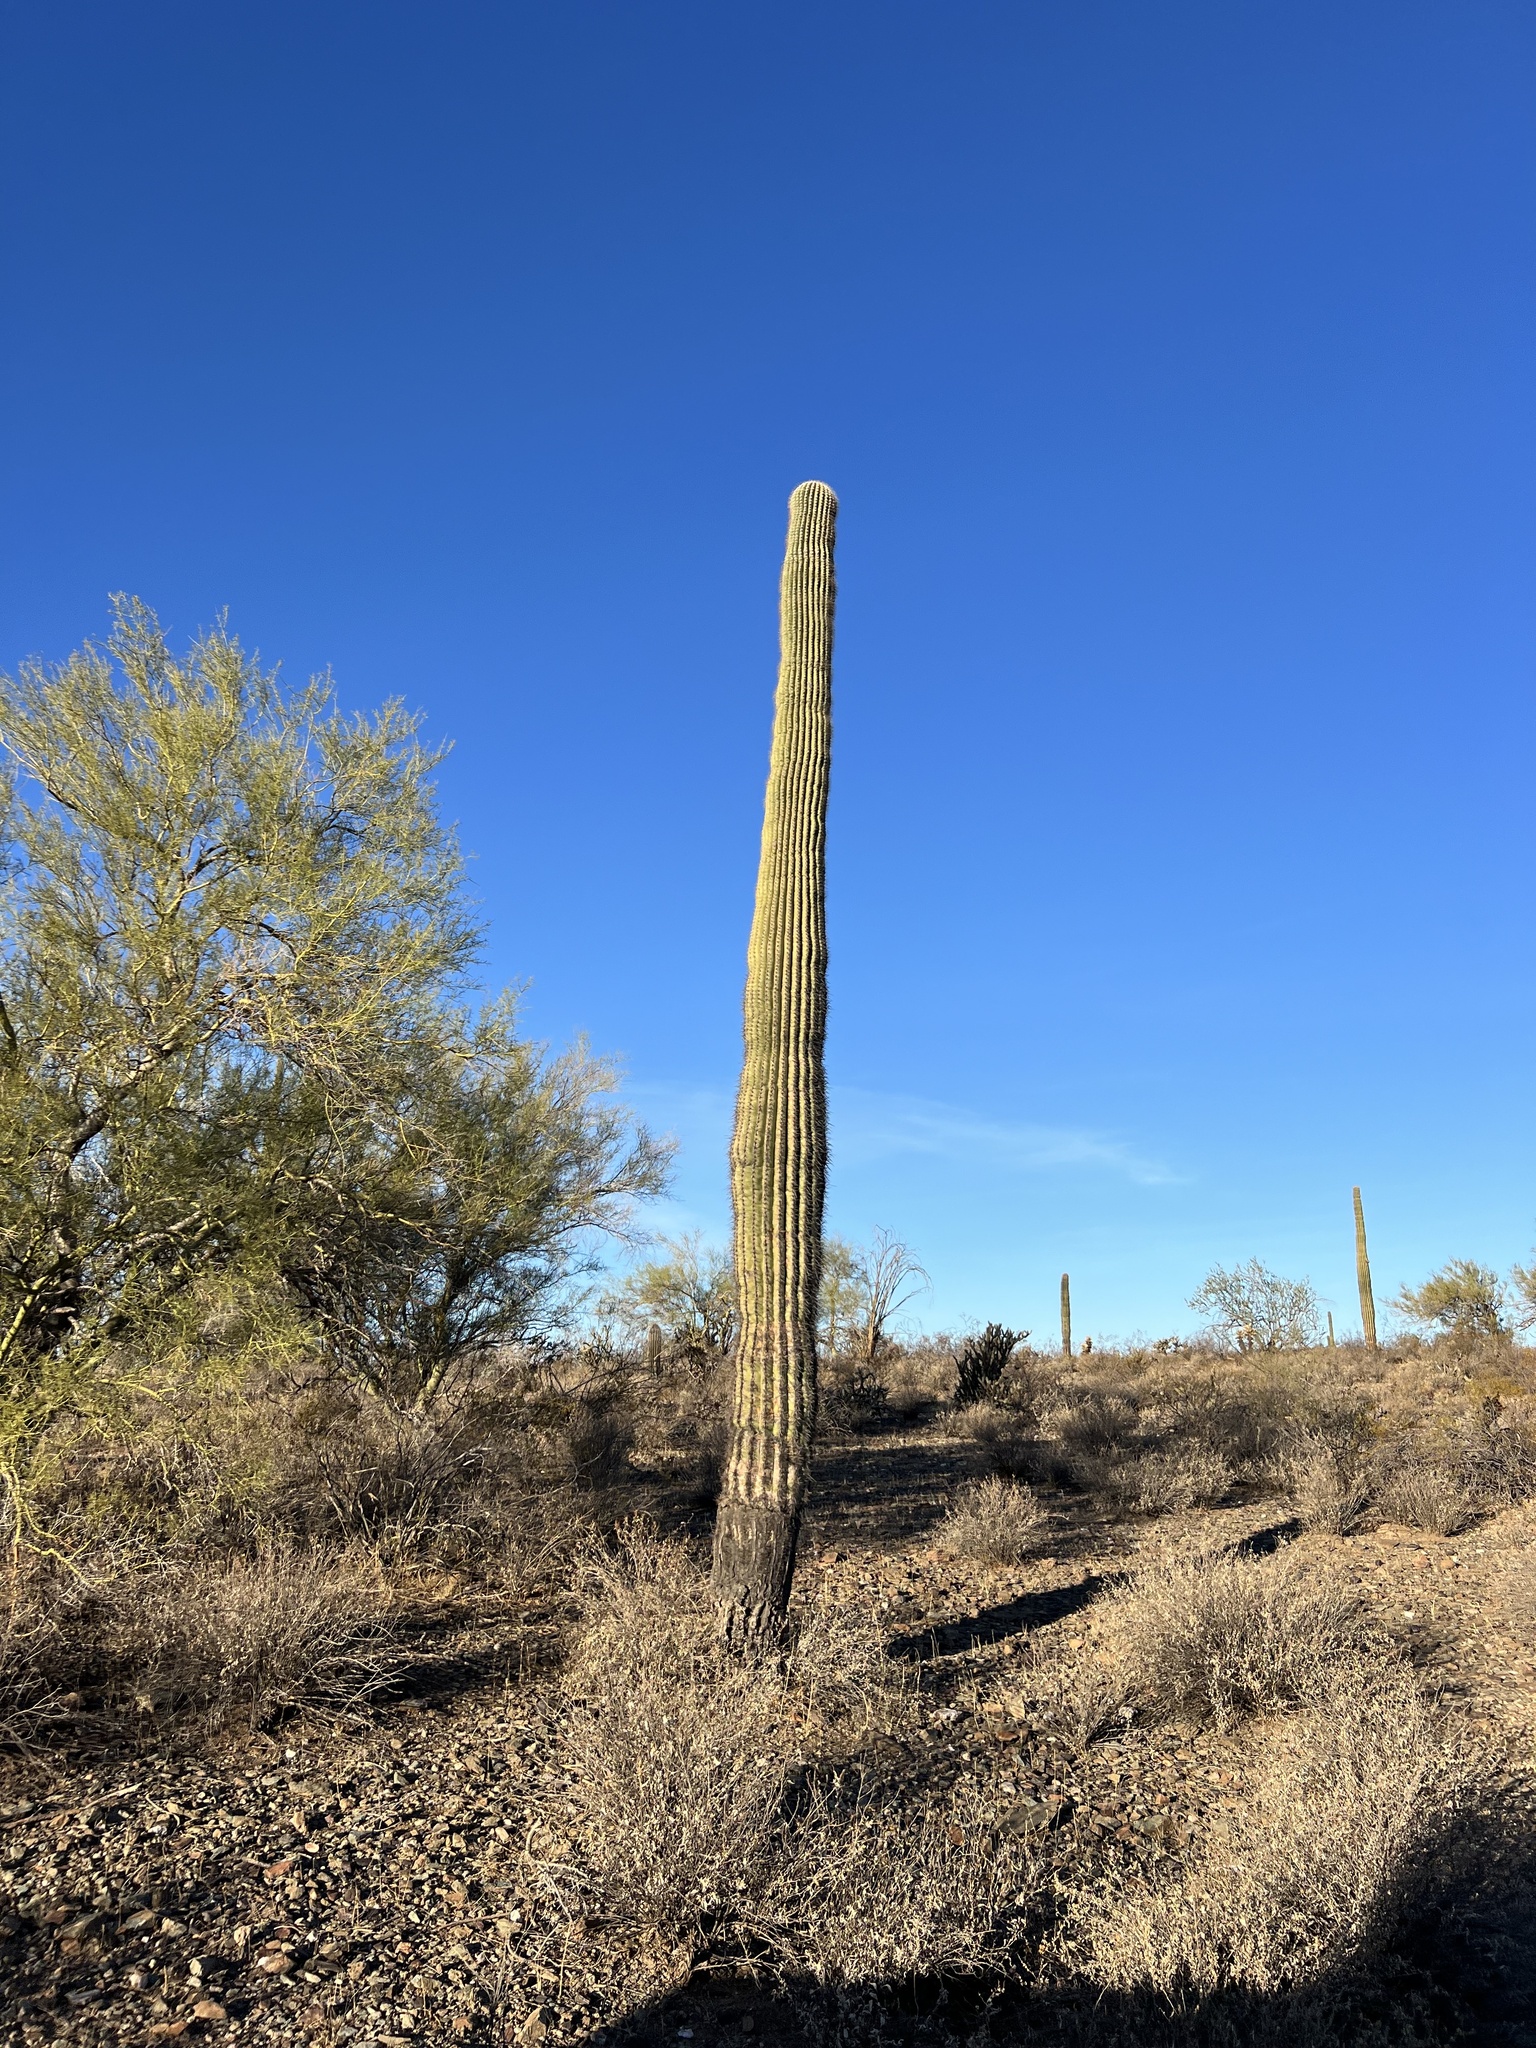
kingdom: Plantae
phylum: Tracheophyta
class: Magnoliopsida
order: Caryophyllales
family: Cactaceae
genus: Carnegiea
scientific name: Carnegiea gigantea
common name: Saguaro
